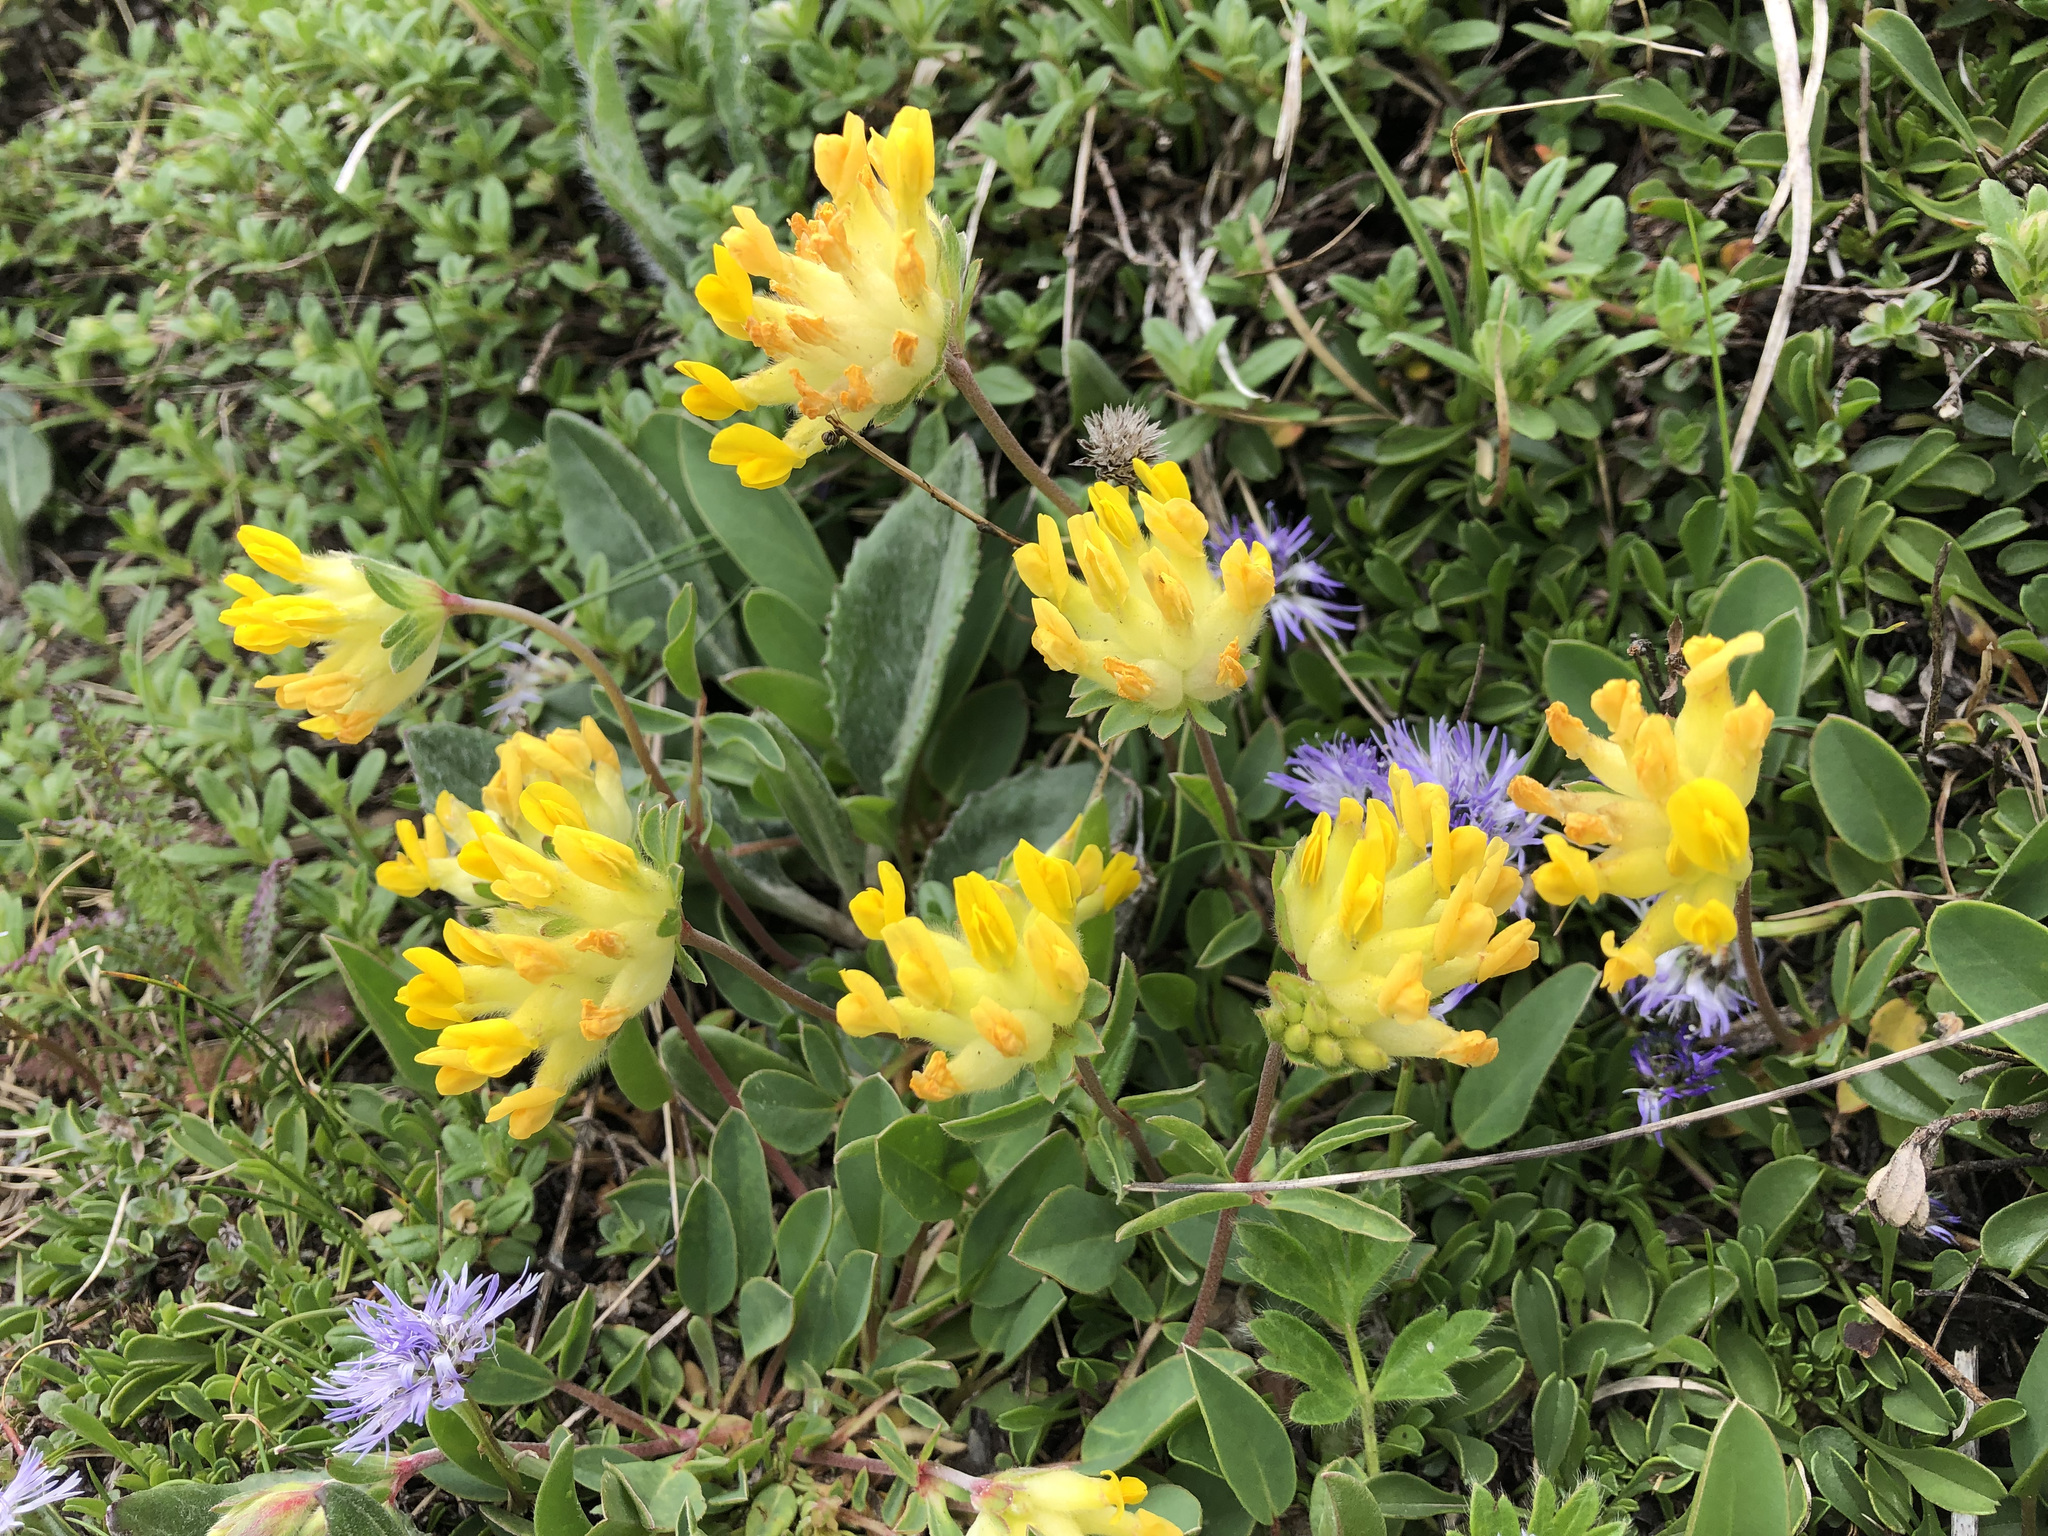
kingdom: Plantae
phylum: Tracheophyta
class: Magnoliopsida
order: Fabales
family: Fabaceae
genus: Anthyllis
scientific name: Anthyllis vulneraria
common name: Kidney vetch
